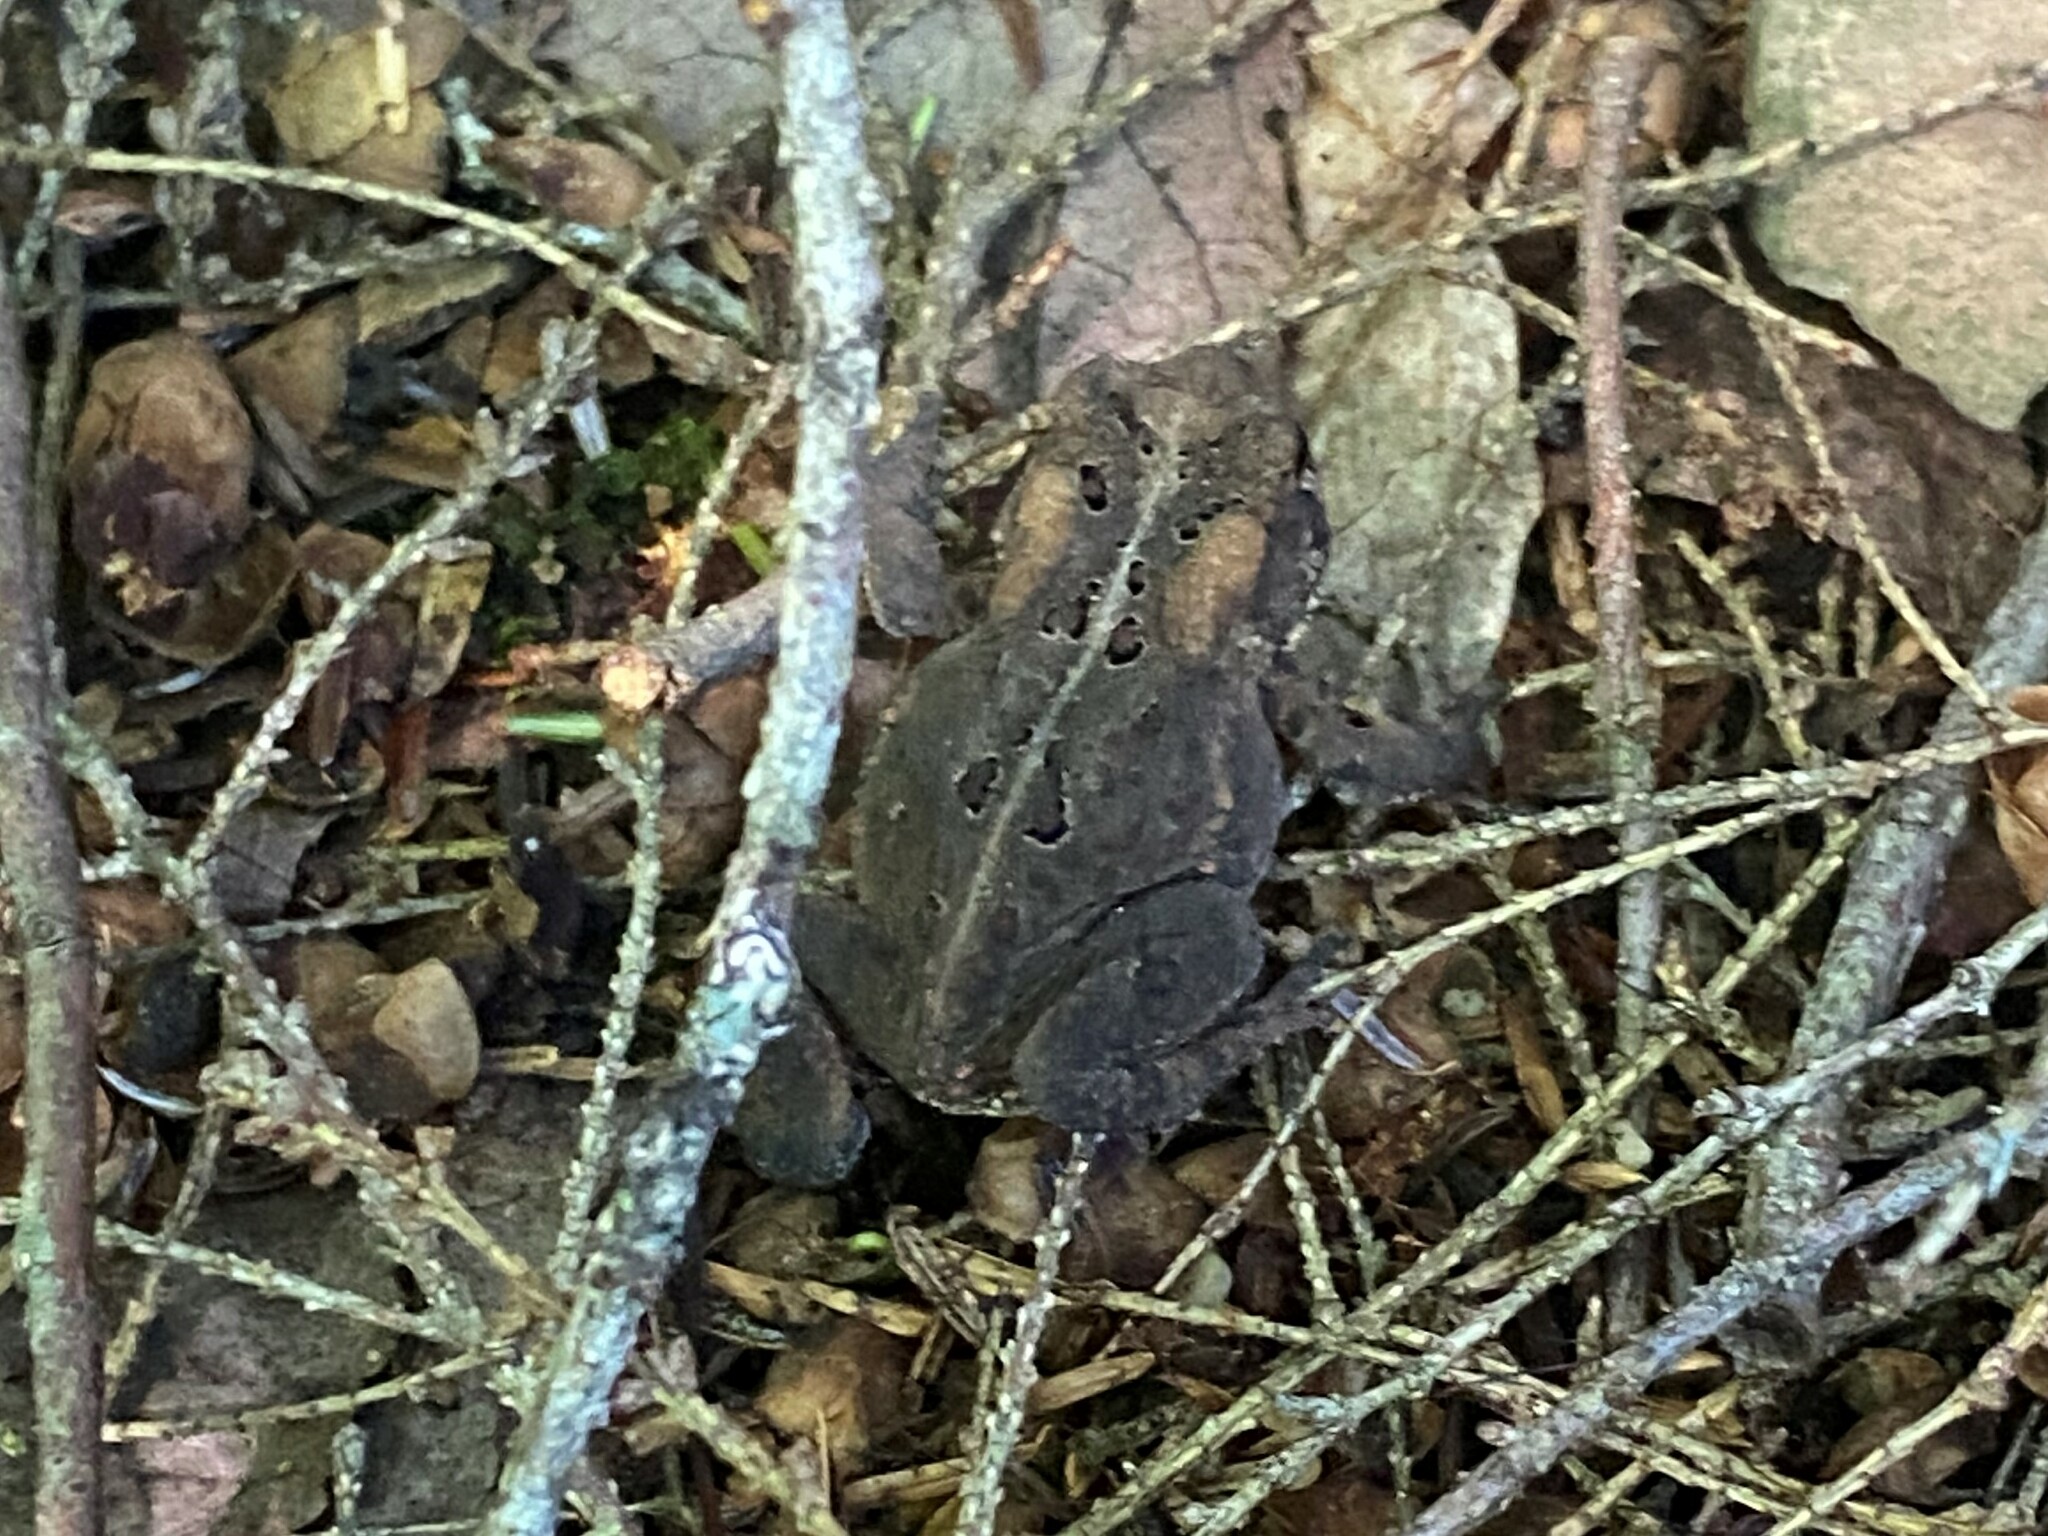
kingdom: Animalia
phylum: Chordata
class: Amphibia
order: Anura
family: Bufonidae
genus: Anaxyrus
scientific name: Anaxyrus americanus
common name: American toad
